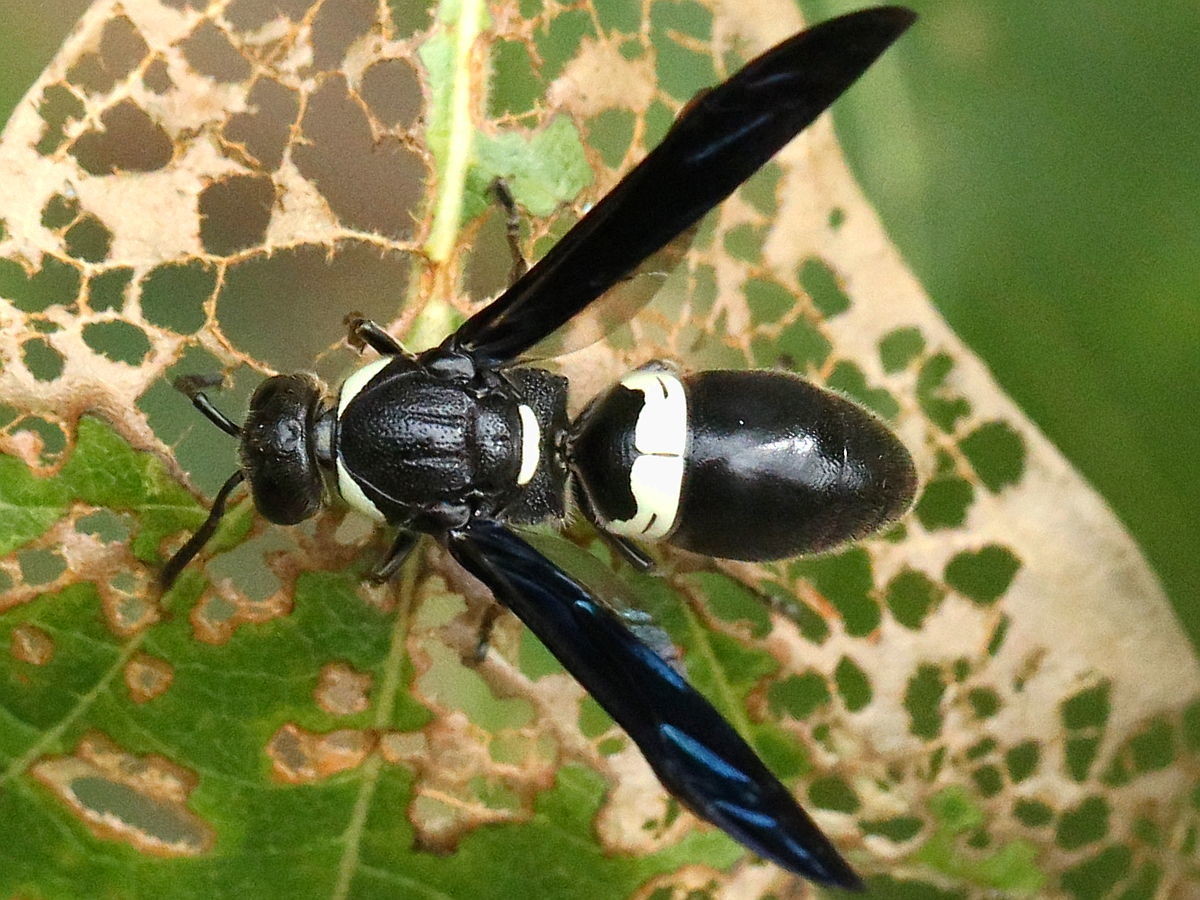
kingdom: Animalia
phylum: Arthropoda
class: Insecta
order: Hymenoptera
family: Eumenidae
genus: Monobia
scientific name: Monobia quadridens
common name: Four-toothed mason wasp
